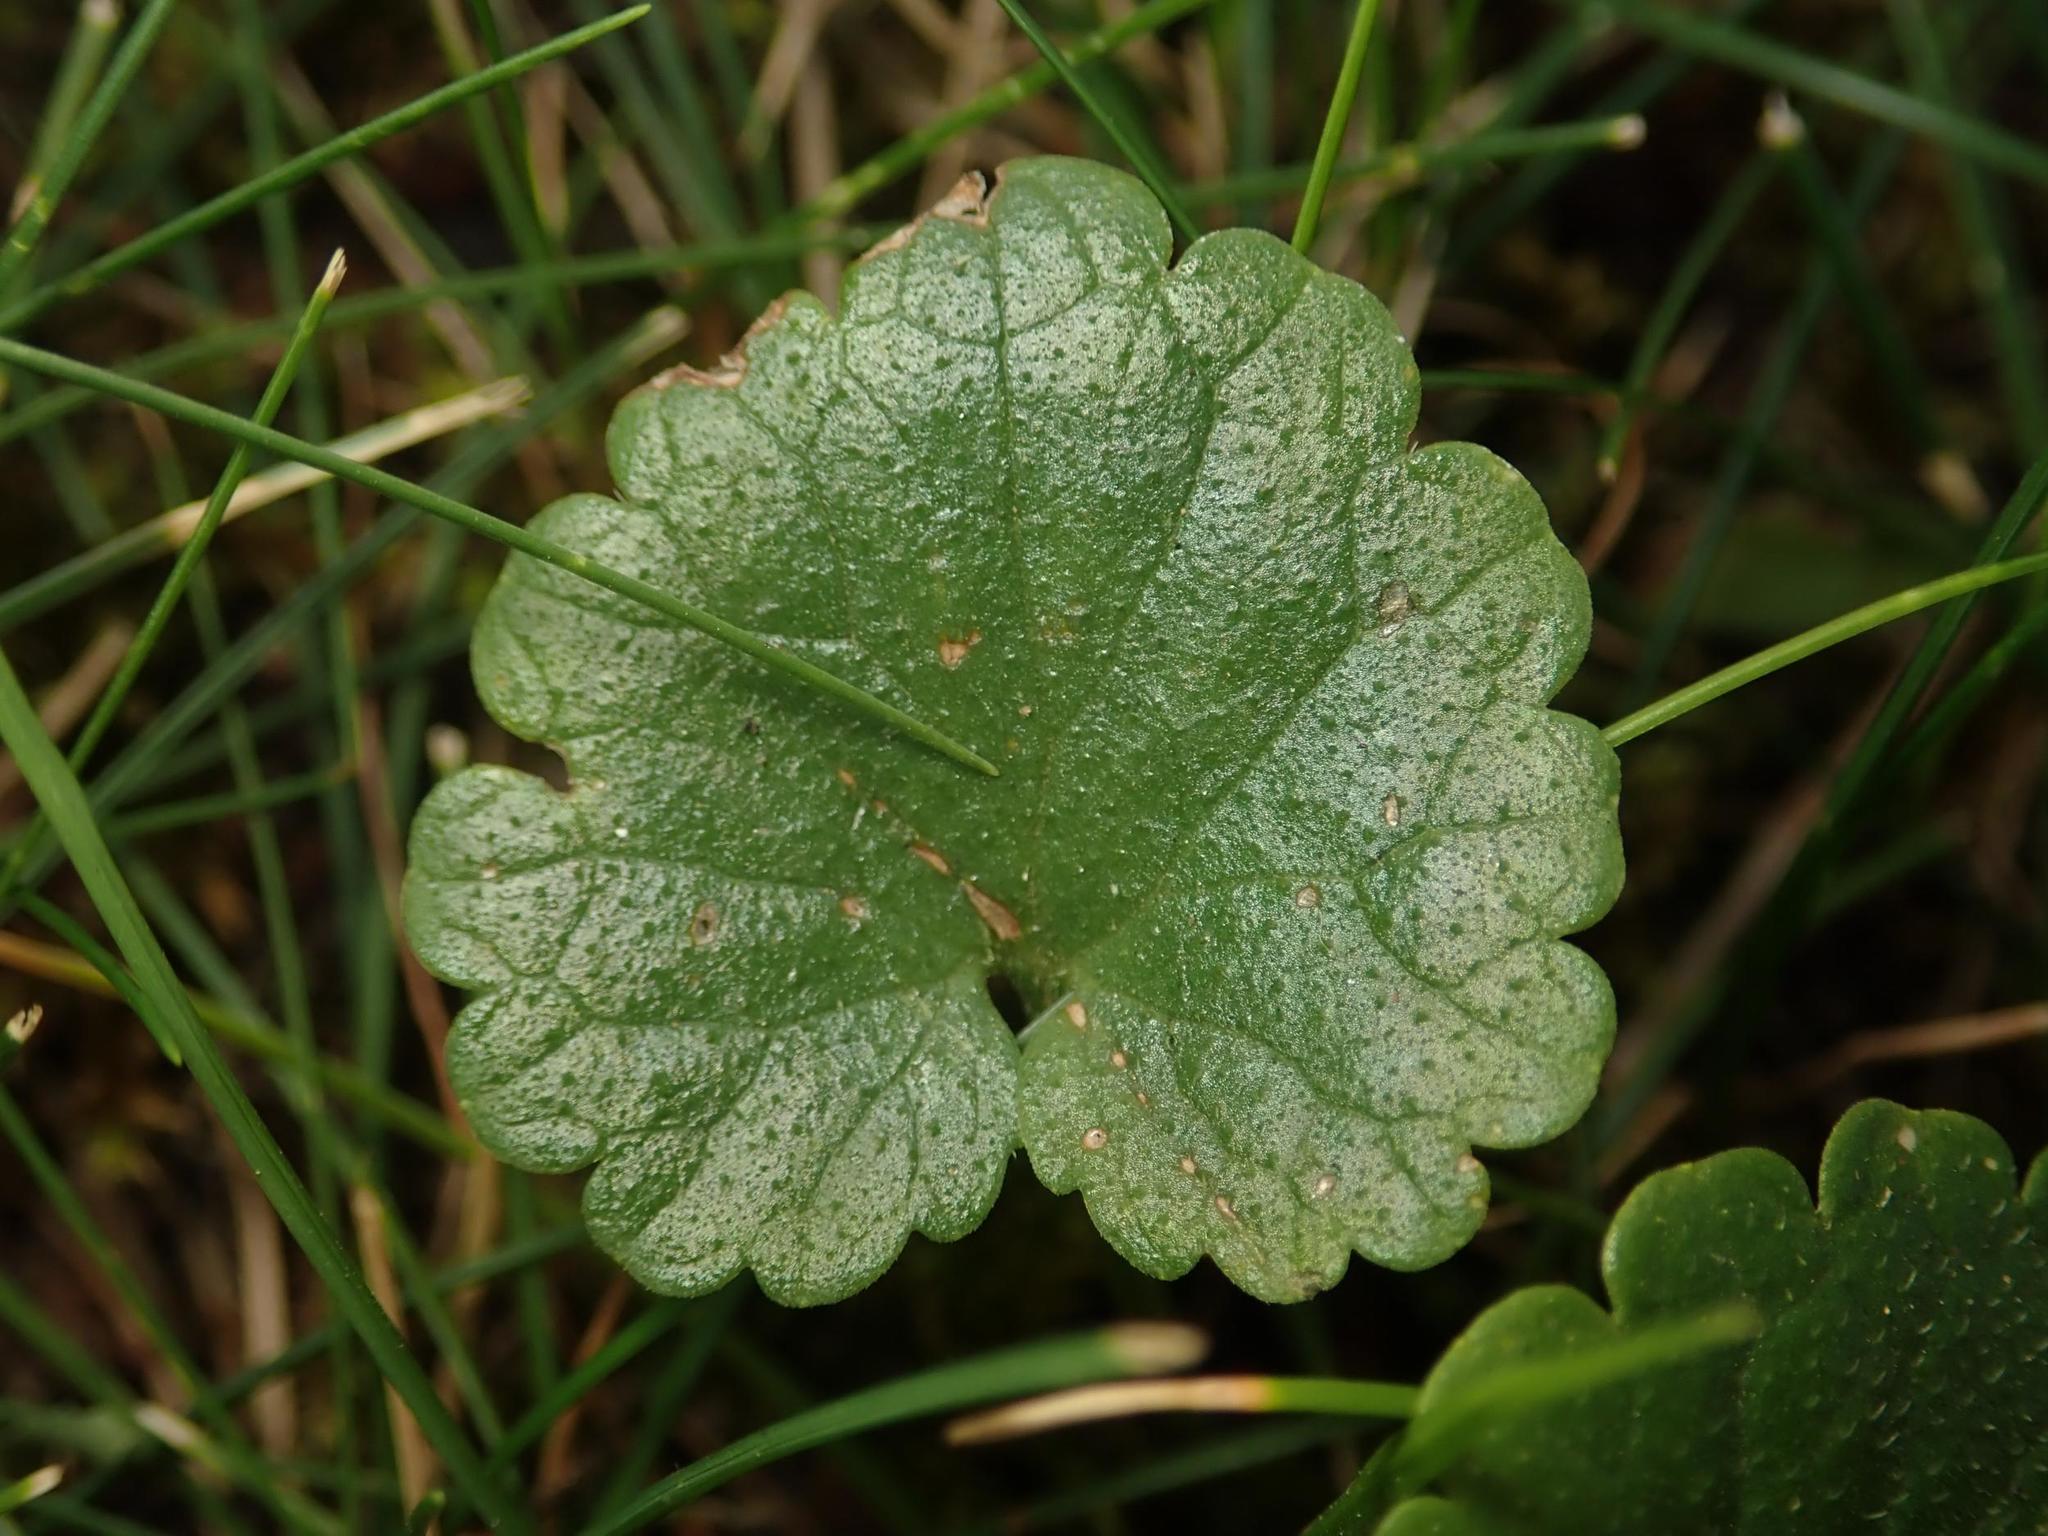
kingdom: Plantae
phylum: Tracheophyta
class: Magnoliopsida
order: Lamiales
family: Lamiaceae
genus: Glechoma
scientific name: Glechoma hederacea
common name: Ground ivy
